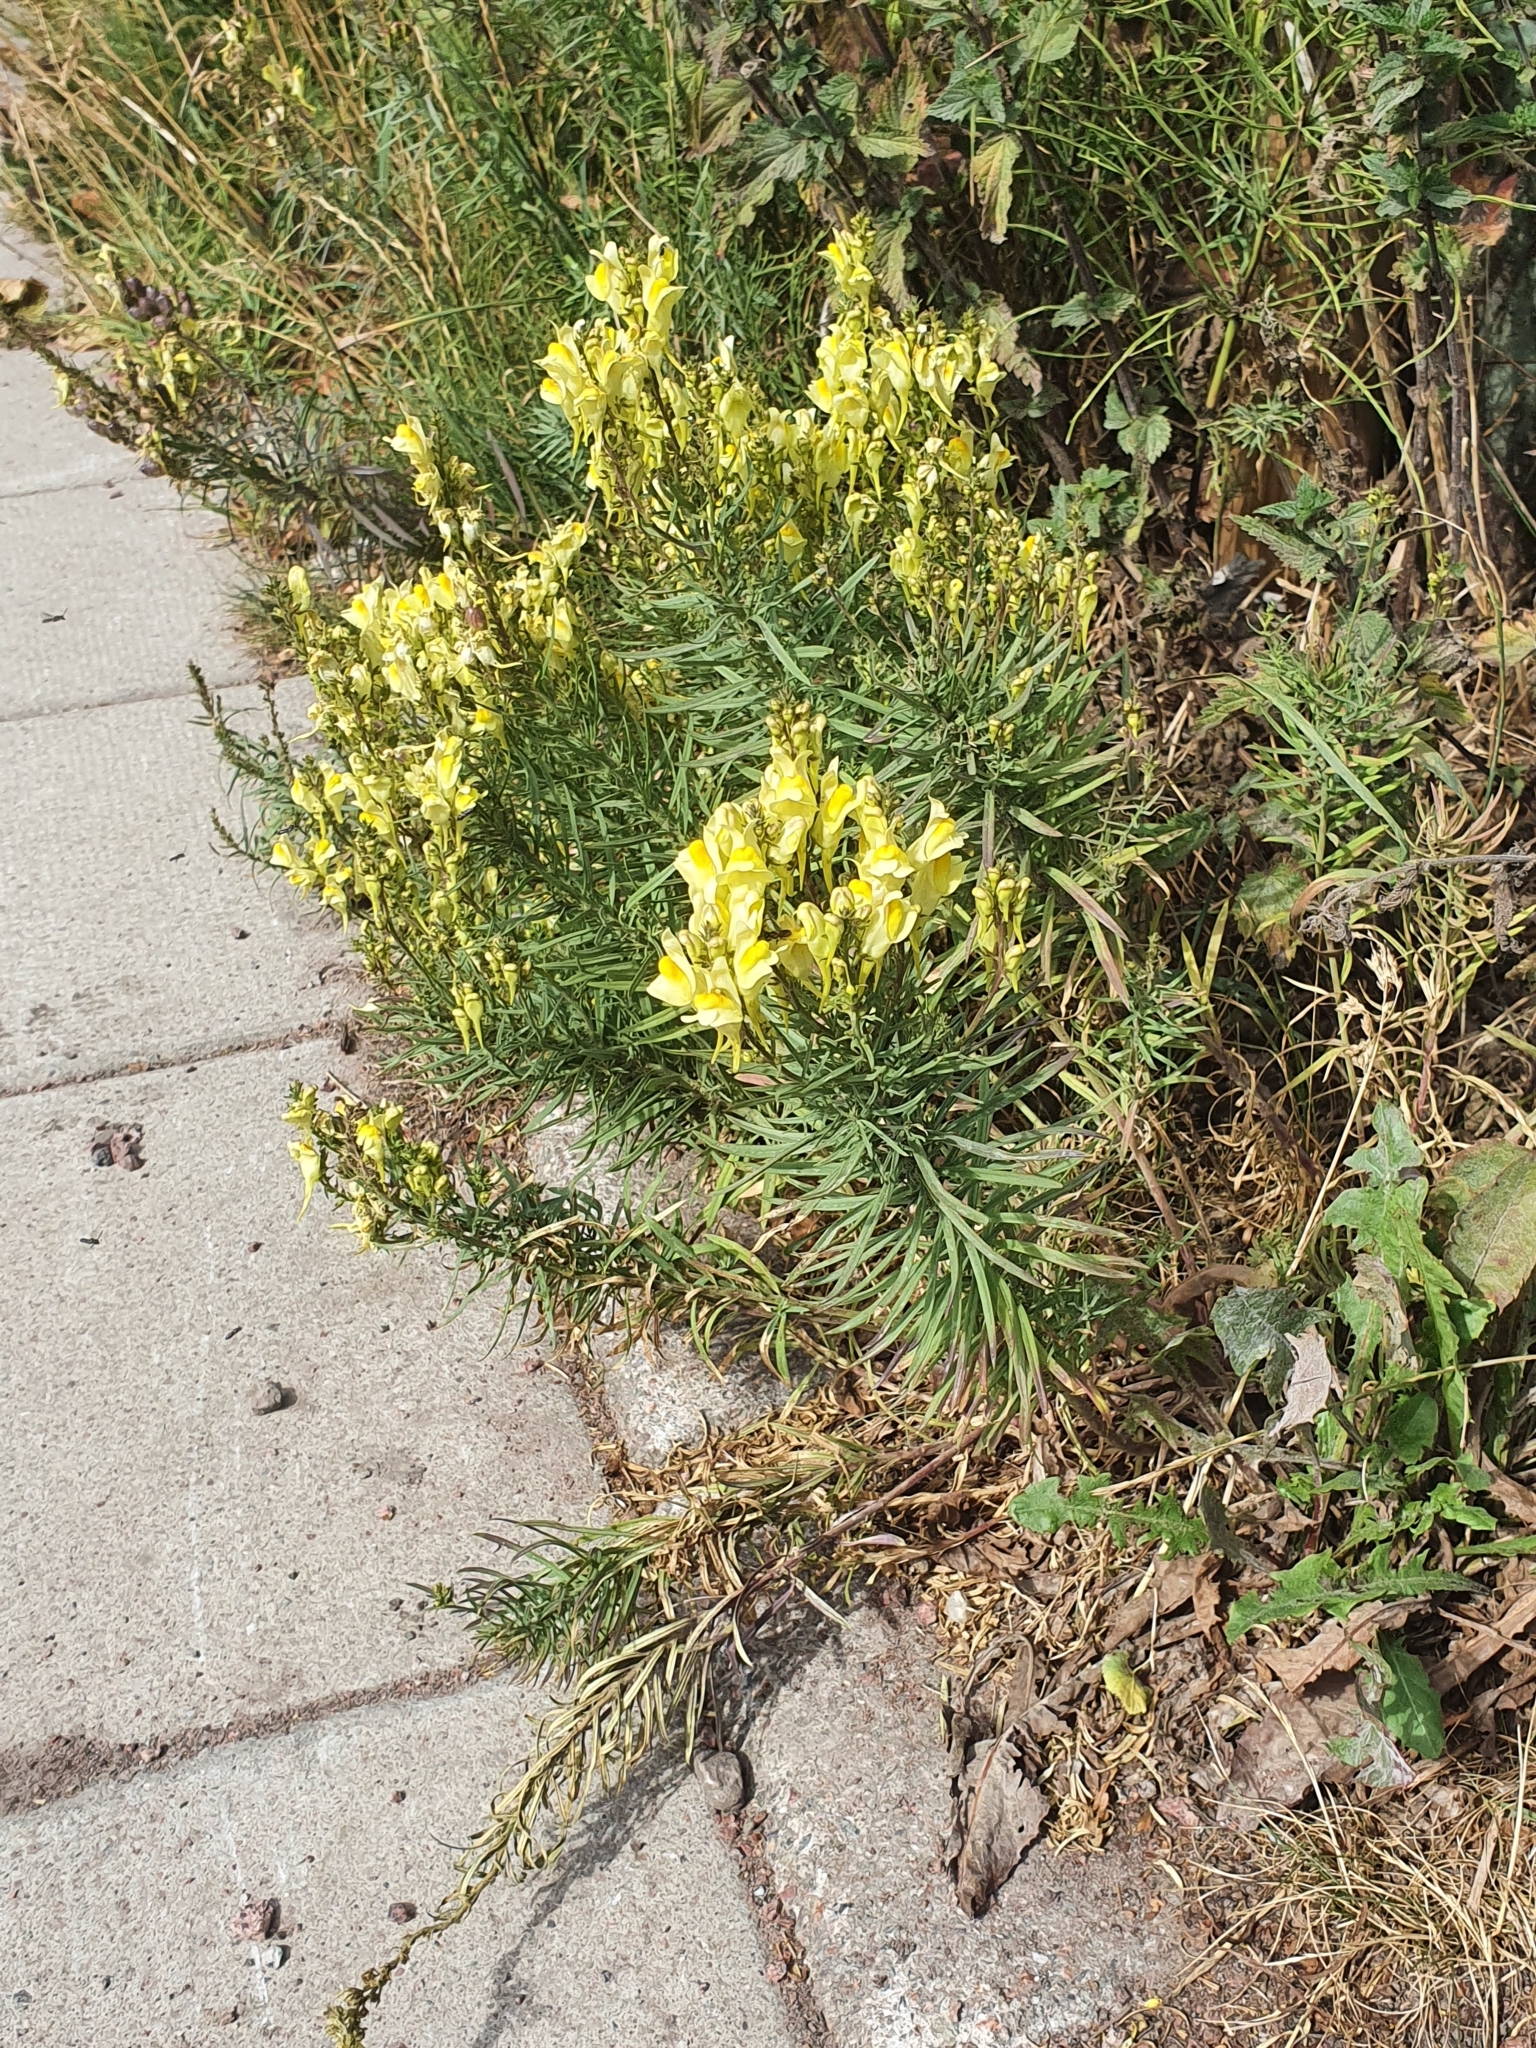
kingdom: Plantae
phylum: Tracheophyta
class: Magnoliopsida
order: Lamiales
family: Plantaginaceae
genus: Linaria
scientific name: Linaria vulgaris
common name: Butter and eggs
